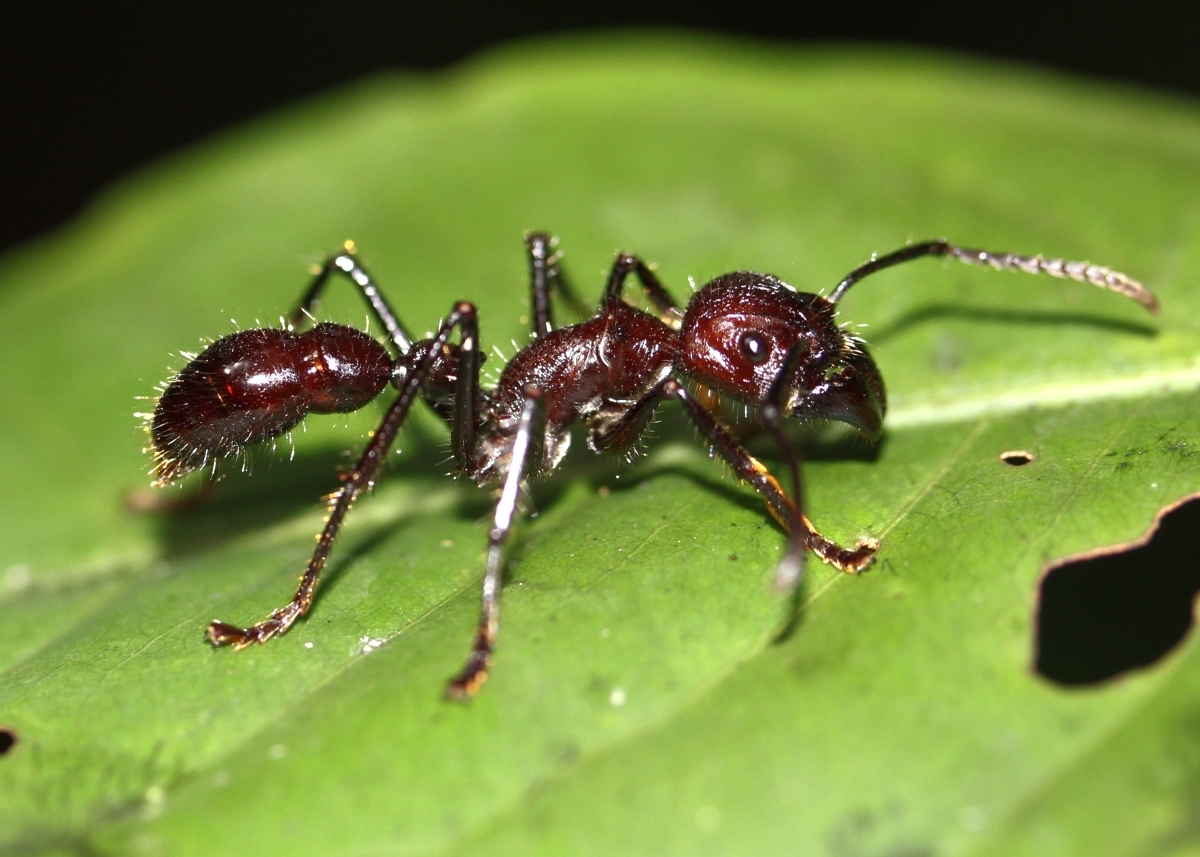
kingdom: Animalia
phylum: Arthropoda
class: Insecta
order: Hymenoptera
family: Formicidae
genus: Paraponera
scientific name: Paraponera clavata
